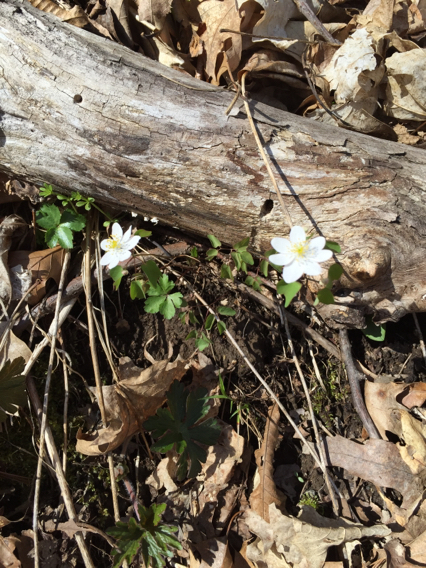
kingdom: Plantae
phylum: Tracheophyta
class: Magnoliopsida
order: Ranunculales
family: Ranunculaceae
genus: Anemone
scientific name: Anemone quinquefolia
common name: Wood anemone
